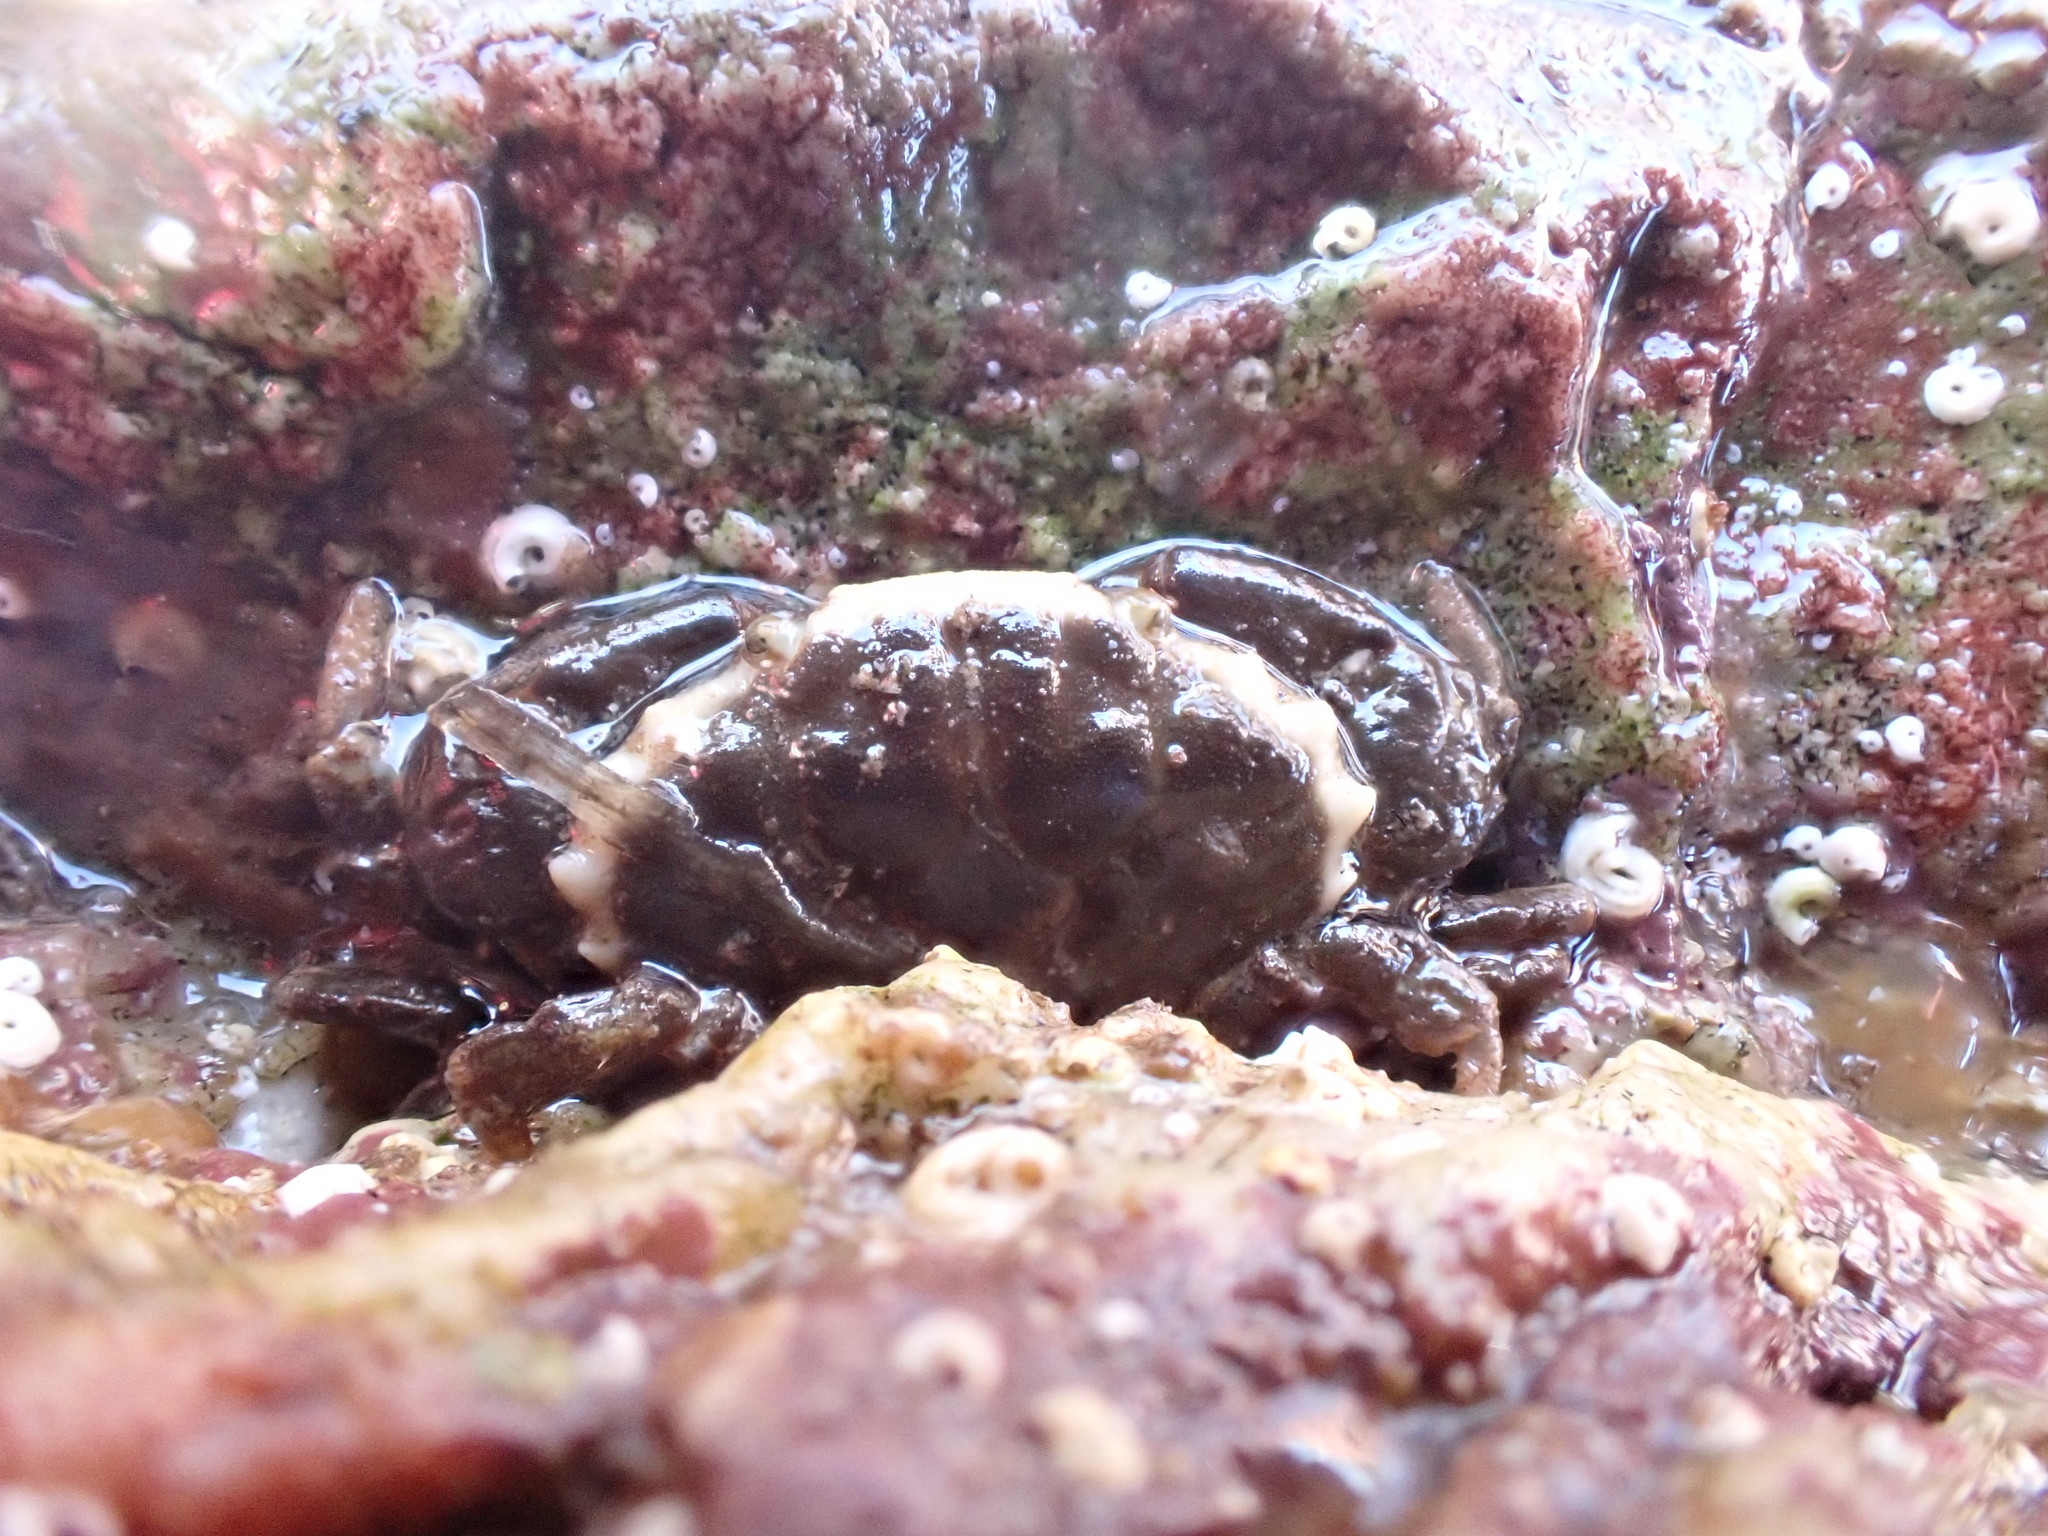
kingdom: Animalia
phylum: Arthropoda
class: Malacostraca
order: Decapoda
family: Xanthidae
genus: Xantho
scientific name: Xantho hydrophilus
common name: Montagu's crab
